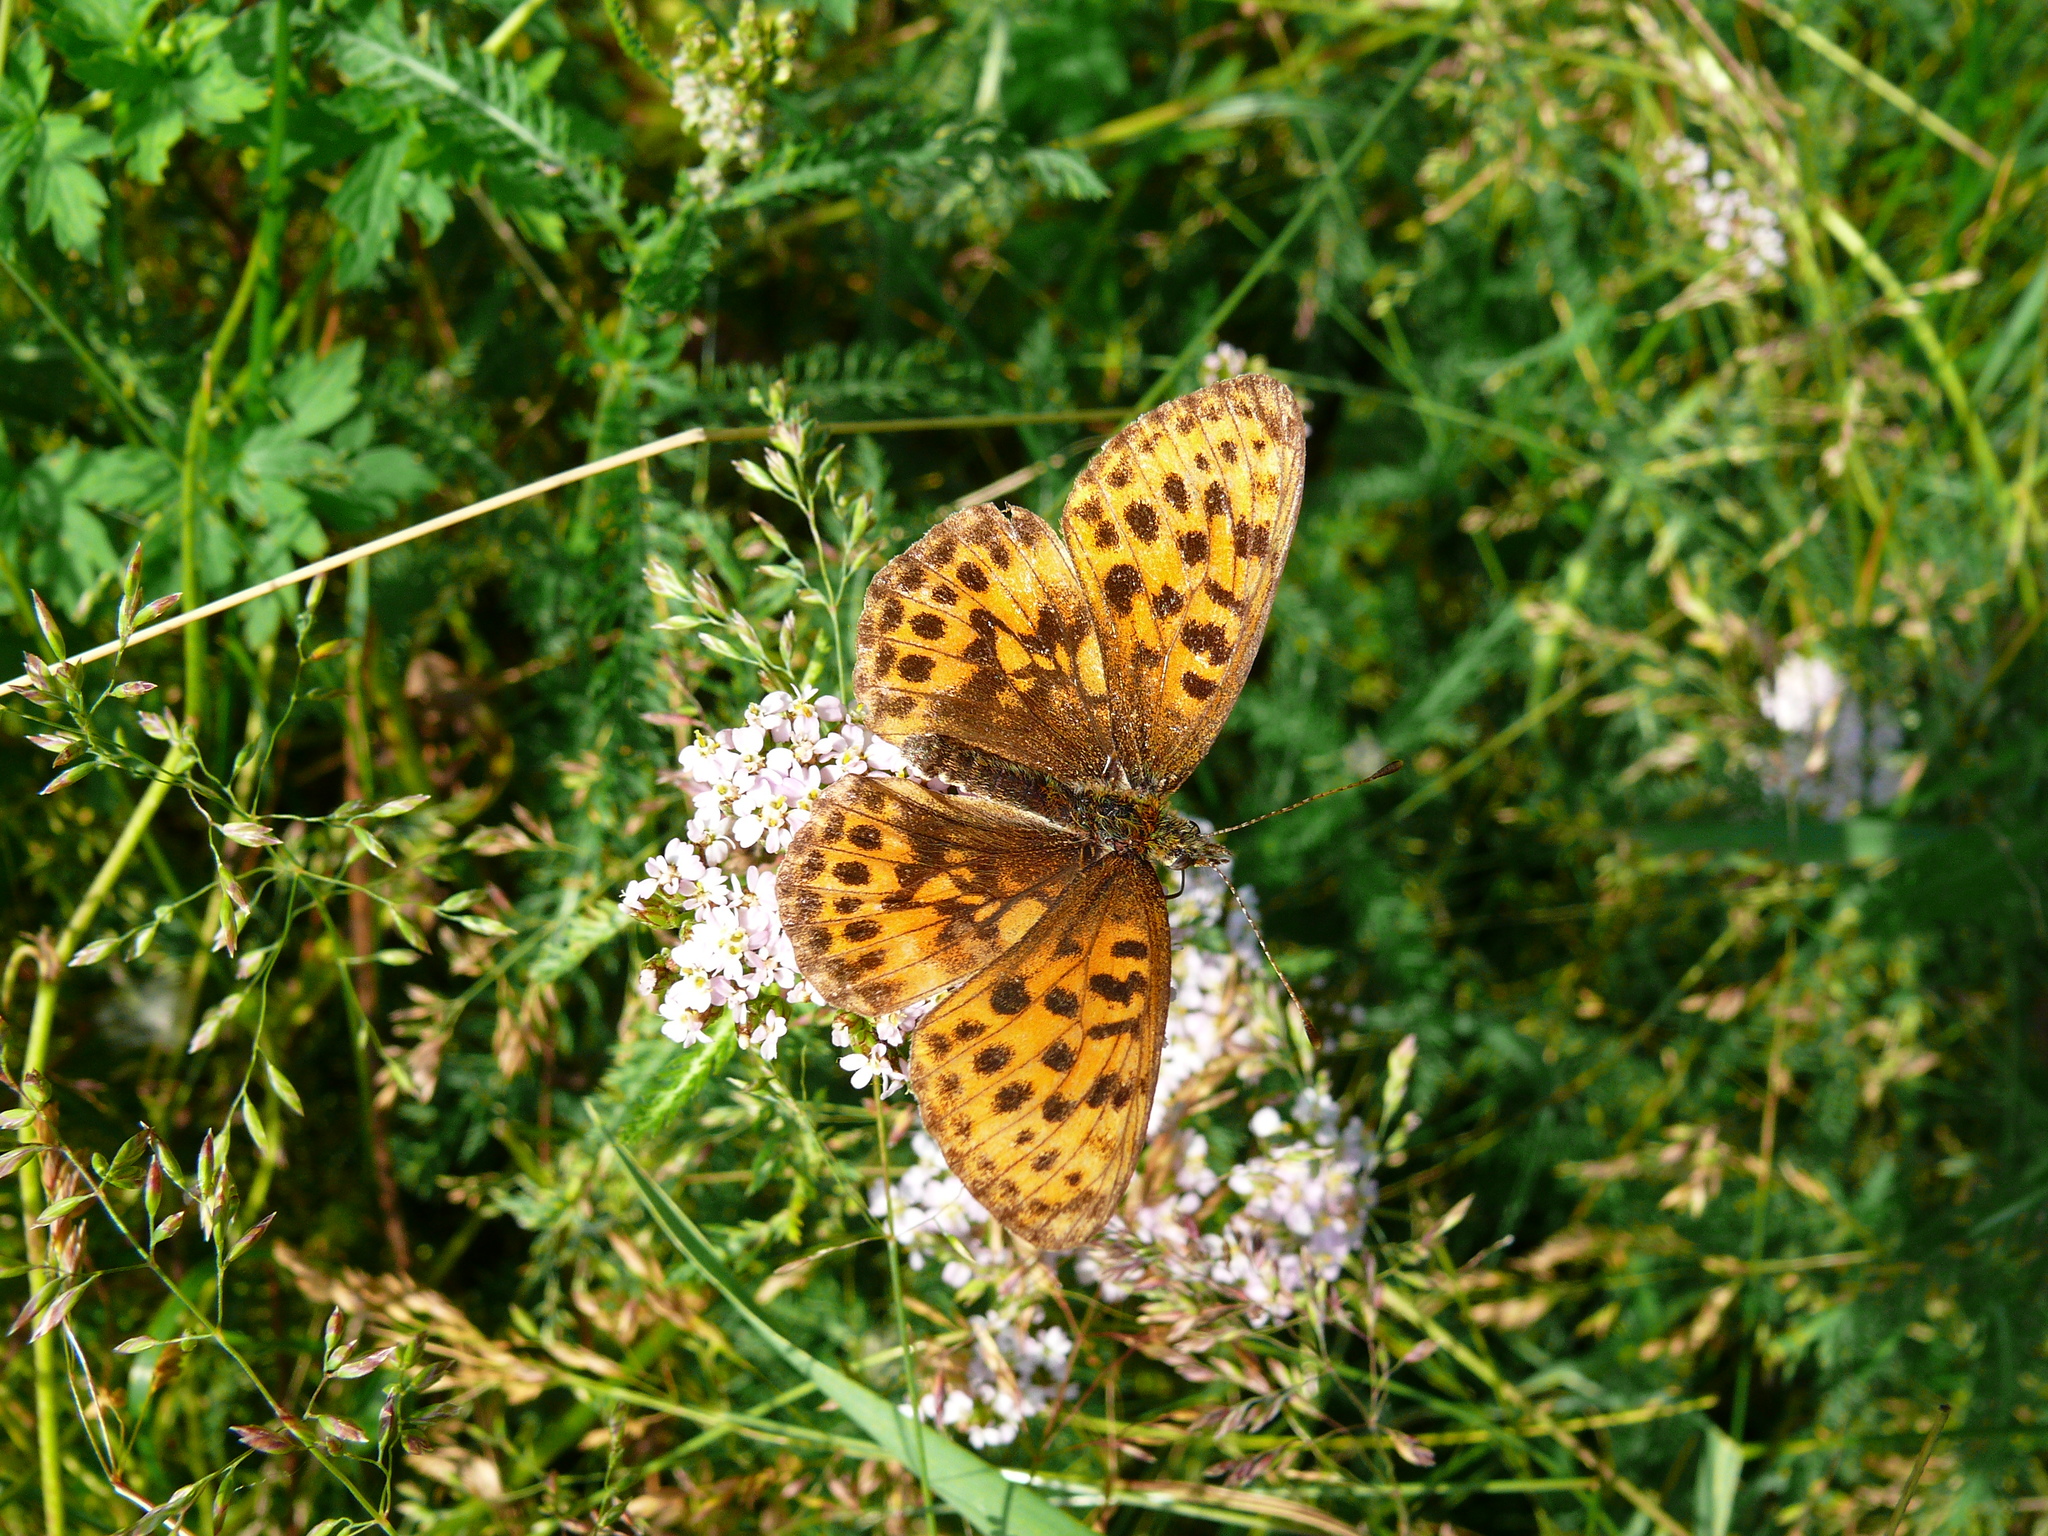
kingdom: Animalia
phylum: Arthropoda
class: Insecta
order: Lepidoptera
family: Nymphalidae
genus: Boloria
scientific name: Boloria thore
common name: Thor's fritillary
